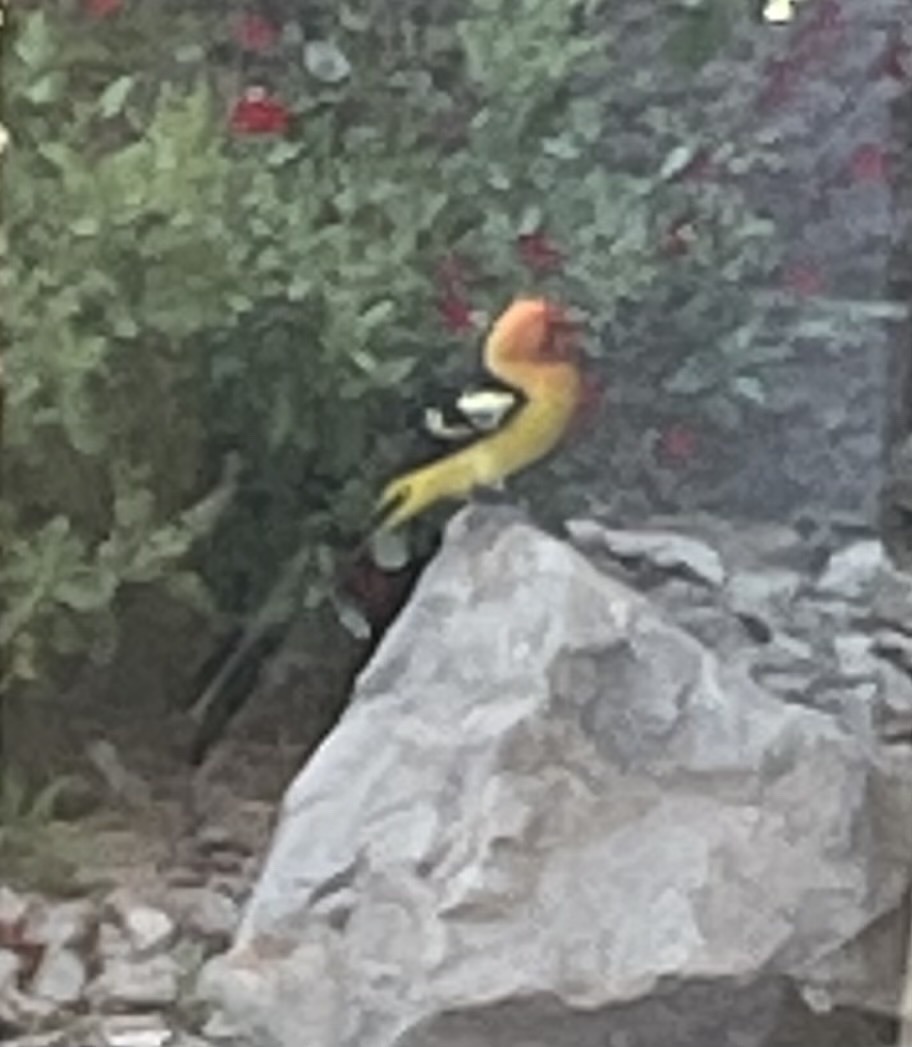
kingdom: Animalia
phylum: Chordata
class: Aves
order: Passeriformes
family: Cardinalidae
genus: Piranga
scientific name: Piranga ludoviciana
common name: Western tanager
